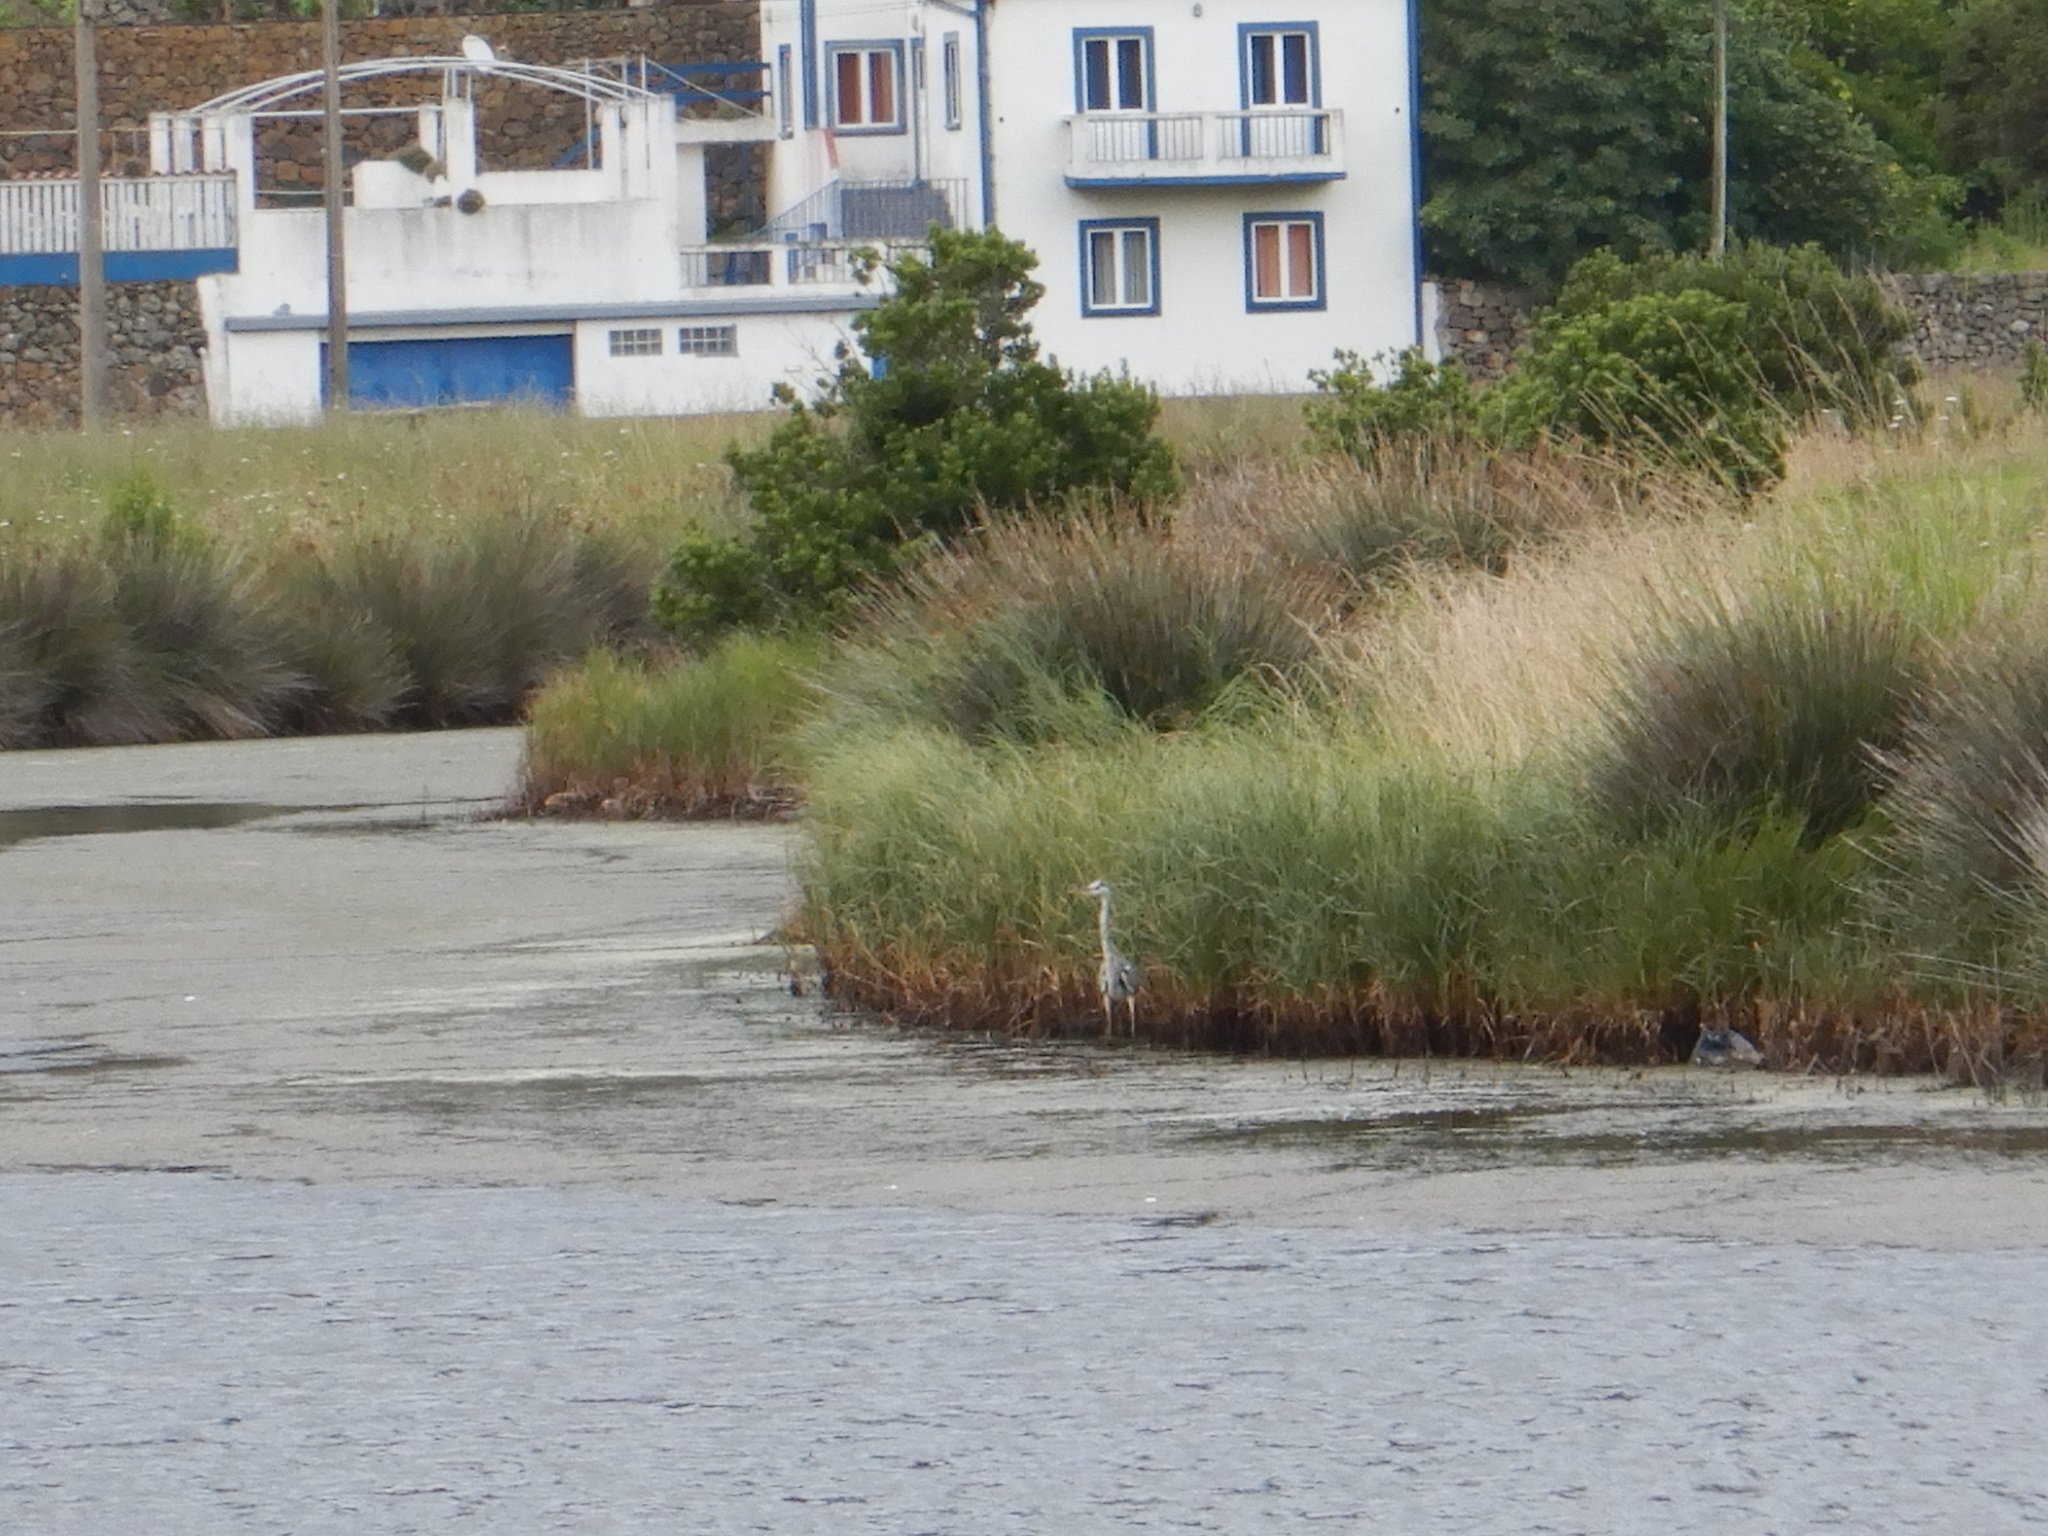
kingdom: Animalia
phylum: Chordata
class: Aves
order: Pelecaniformes
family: Ardeidae
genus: Ardea
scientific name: Ardea cinerea
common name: Grey heron
